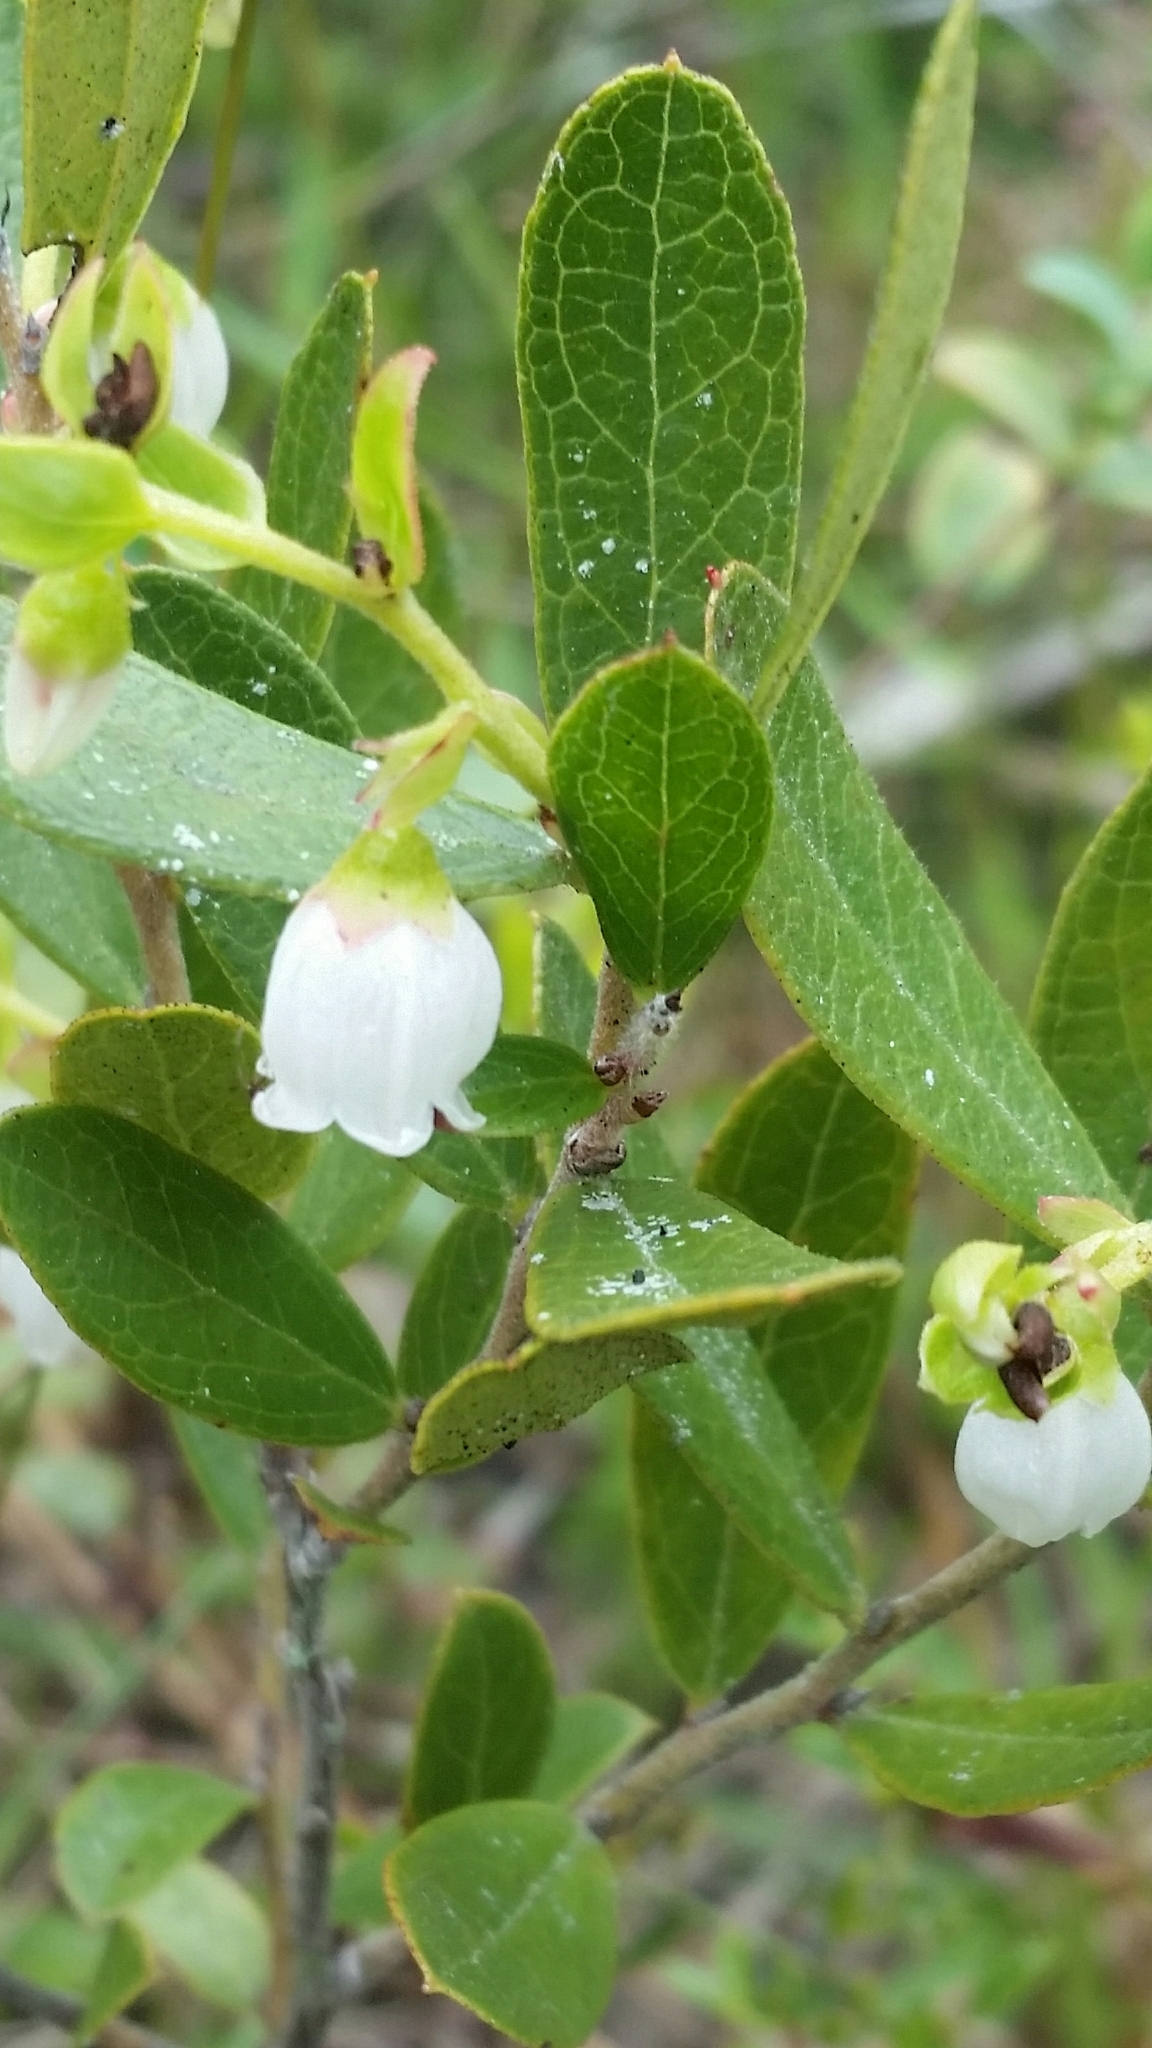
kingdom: Plantae
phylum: Tracheophyta
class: Magnoliopsida
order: Ericales
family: Ericaceae
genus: Gaylussacia
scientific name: Gaylussacia dumosa
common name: Dwarf huckleberry
